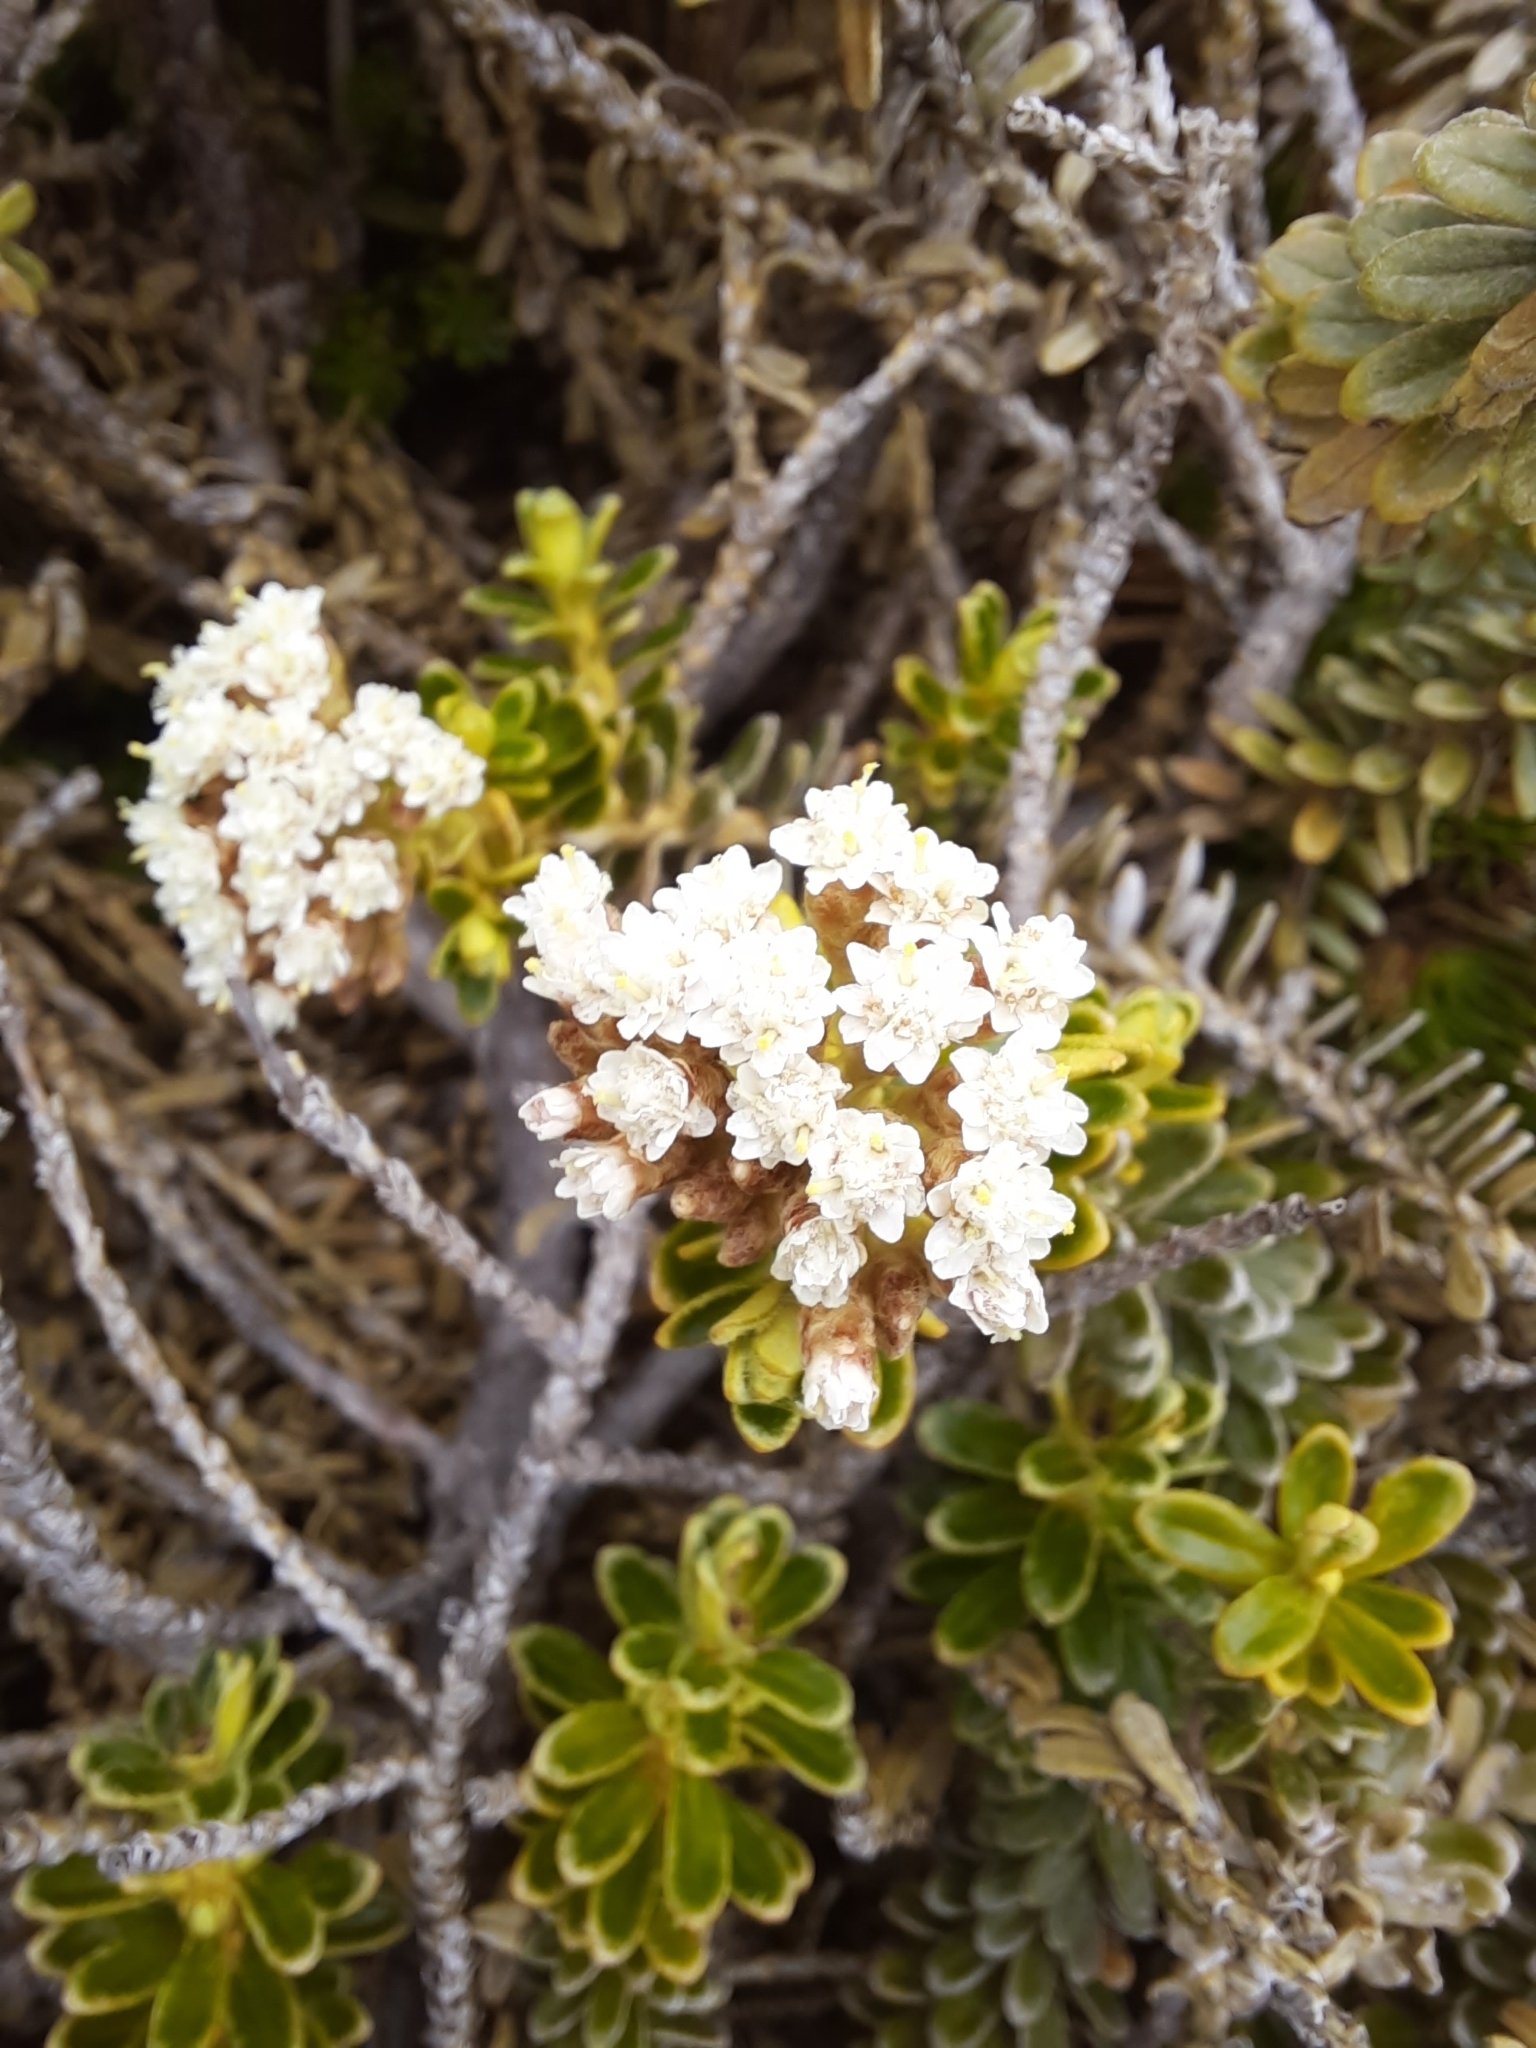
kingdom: Plantae
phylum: Tracheophyta
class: Magnoliopsida
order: Asterales
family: Asteraceae
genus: Ozothamnus
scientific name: Ozothamnus leptophyllus
